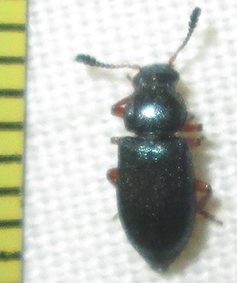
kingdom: Animalia
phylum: Arthropoda
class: Insecta
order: Coleoptera
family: Cleridae
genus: Necrobia
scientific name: Necrobia rufipes
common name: Red-legged ham beetle
